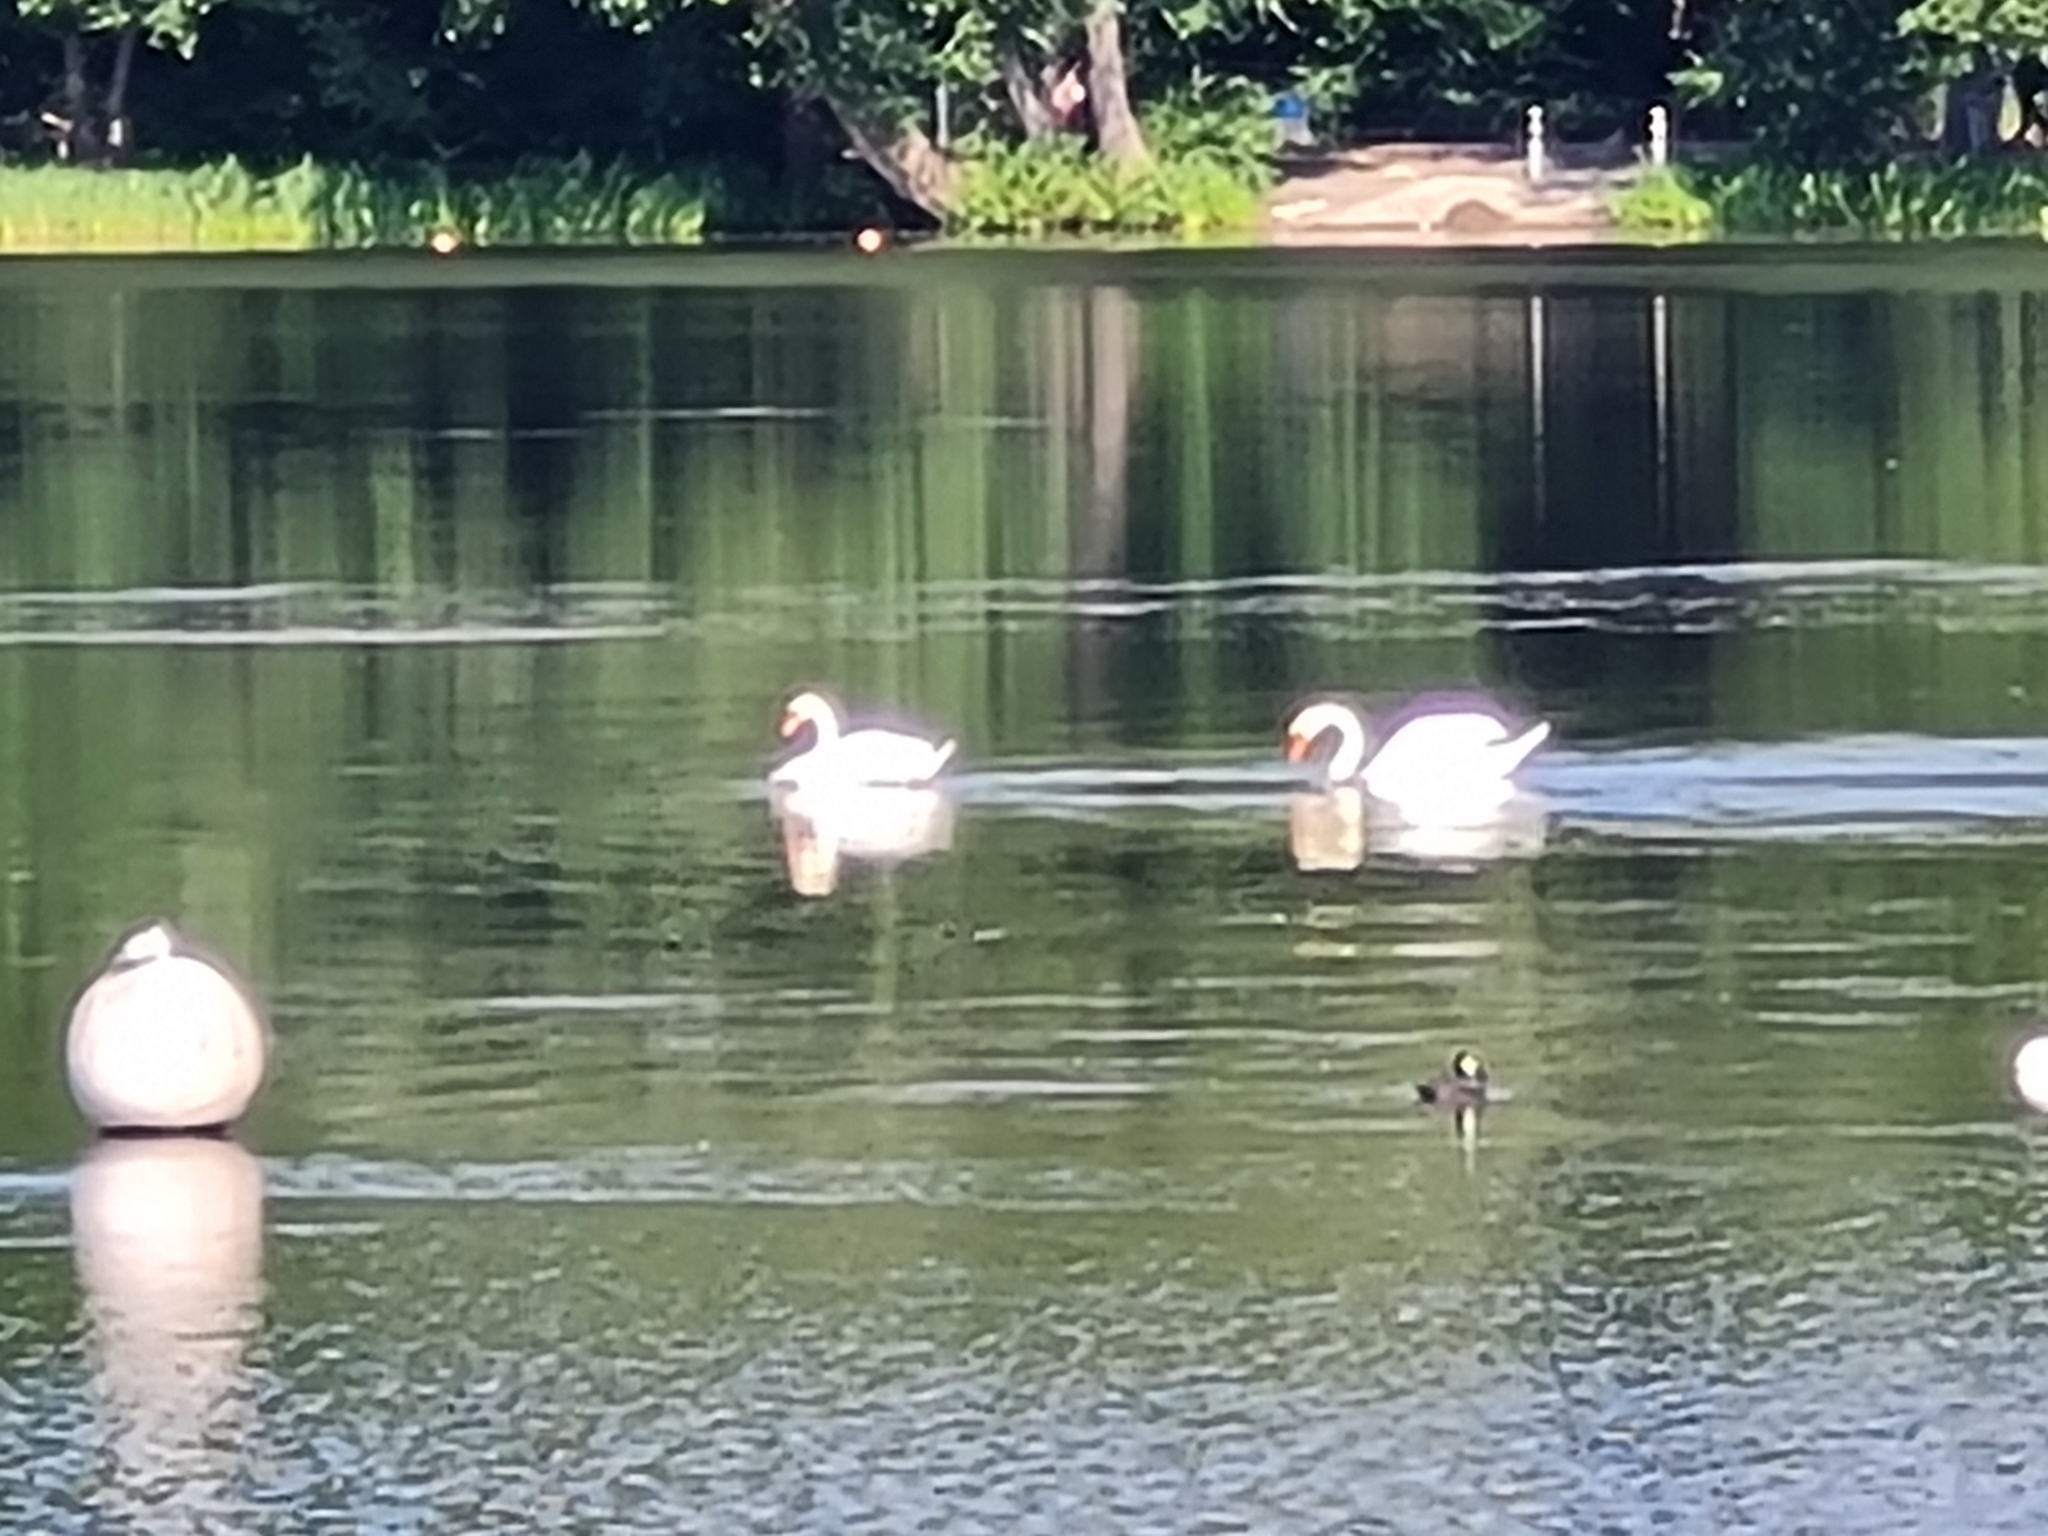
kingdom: Animalia
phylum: Chordata
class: Aves
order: Anseriformes
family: Anatidae
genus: Cygnus
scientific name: Cygnus olor
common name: Mute swan
